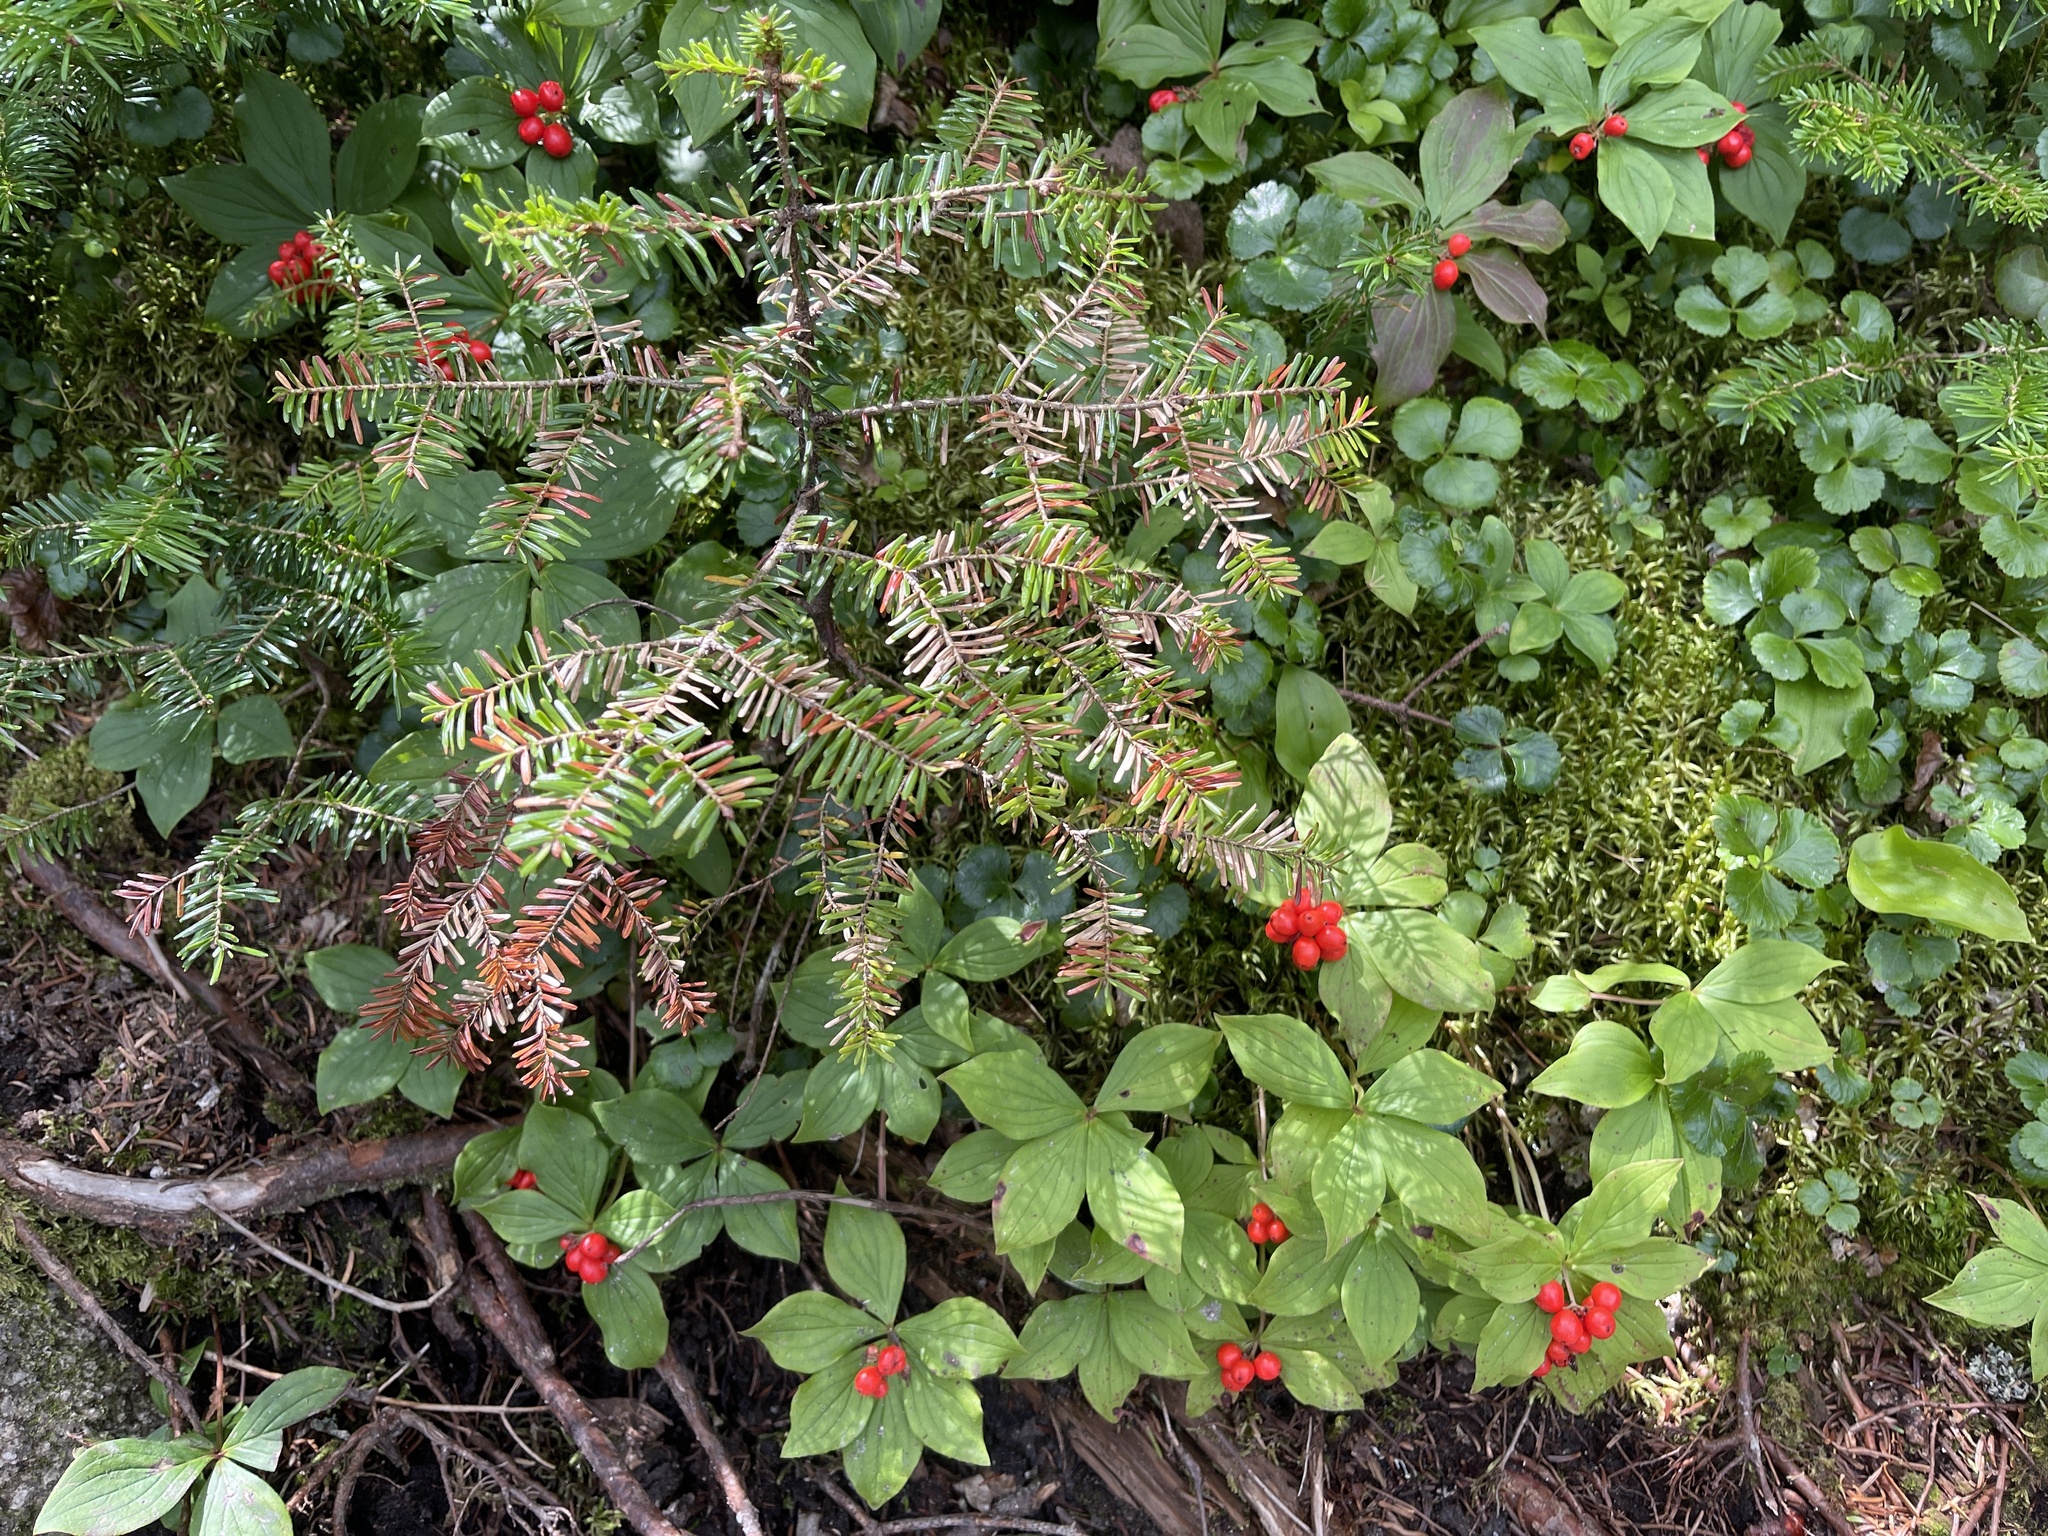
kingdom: Plantae
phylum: Tracheophyta
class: Magnoliopsida
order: Cornales
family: Cornaceae
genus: Cornus
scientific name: Cornus canadensis
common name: Creeping dogwood
